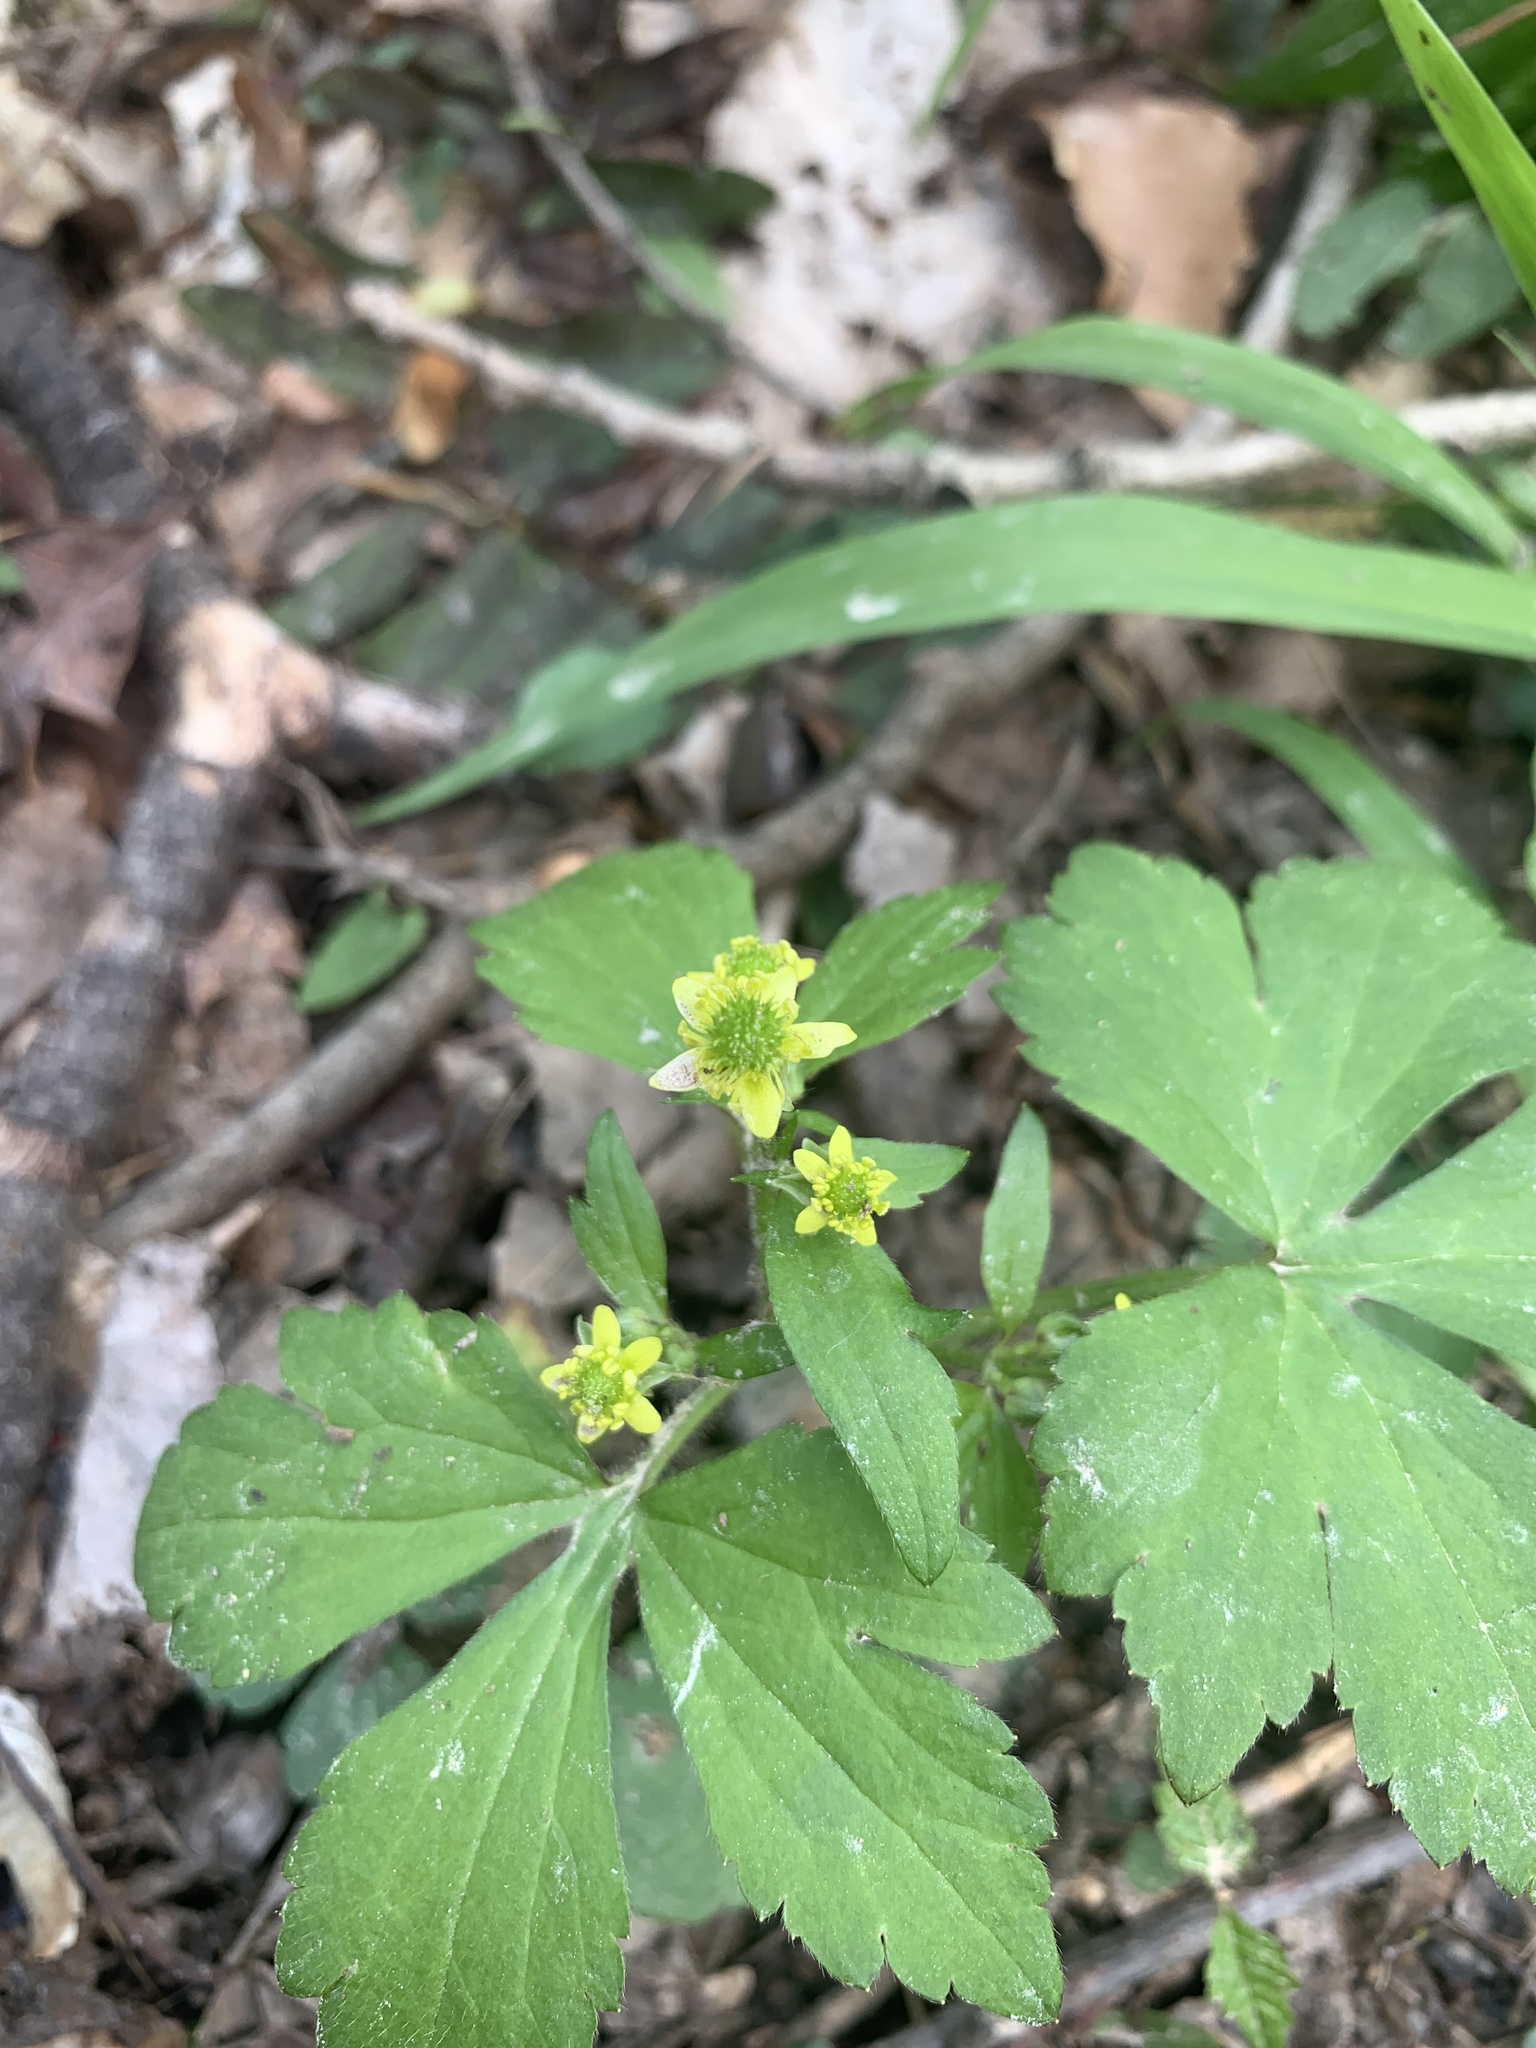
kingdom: Plantae
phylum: Tracheophyta
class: Magnoliopsida
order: Ranunculales
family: Ranunculaceae
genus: Ranunculus
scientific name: Ranunculus recurvatus
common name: Blisterwort
